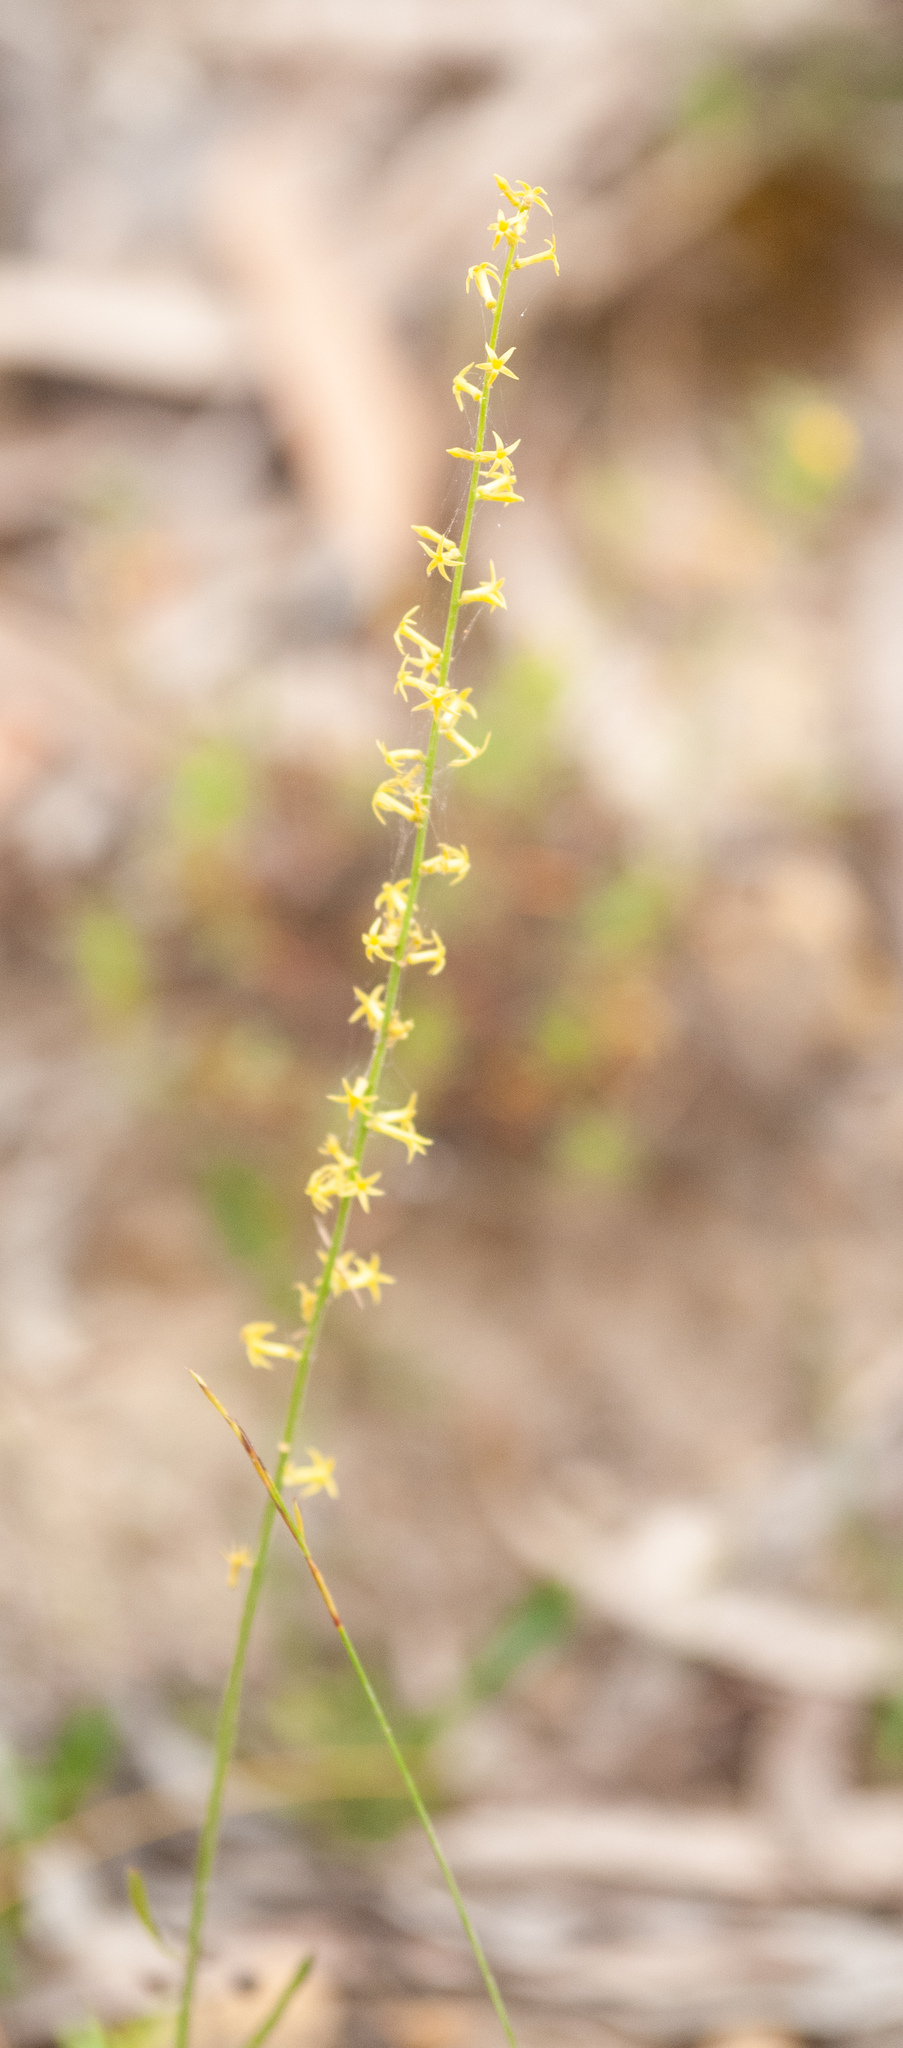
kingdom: Plantae
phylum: Tracheophyta
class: Magnoliopsida
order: Celastrales
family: Celastraceae
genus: Stackhousia
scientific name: Stackhousia viminea
